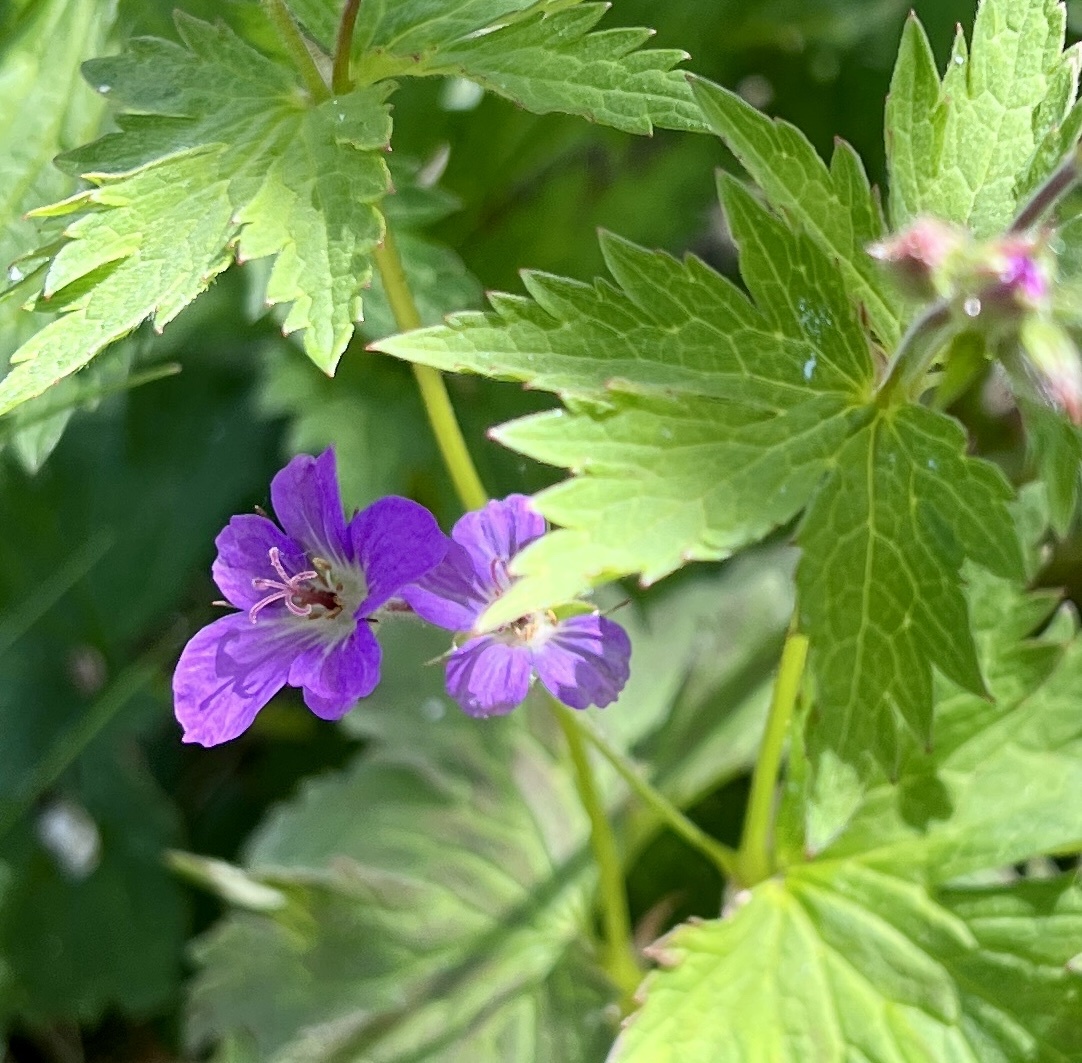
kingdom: Plantae
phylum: Tracheophyta
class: Magnoliopsida
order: Geraniales
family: Geraniaceae
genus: Geranium
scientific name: Geranium sylvaticum
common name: Wood crane's-bill
